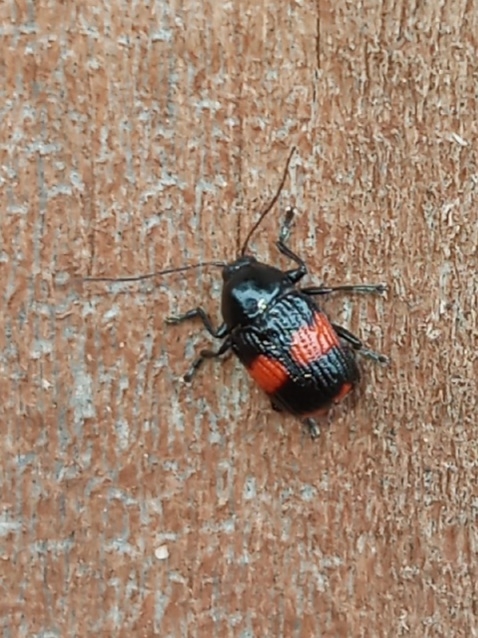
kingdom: Animalia
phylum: Arthropoda
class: Insecta
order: Coleoptera
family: Chrysomelidae
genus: Bassareus
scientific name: Bassareus mammifer
